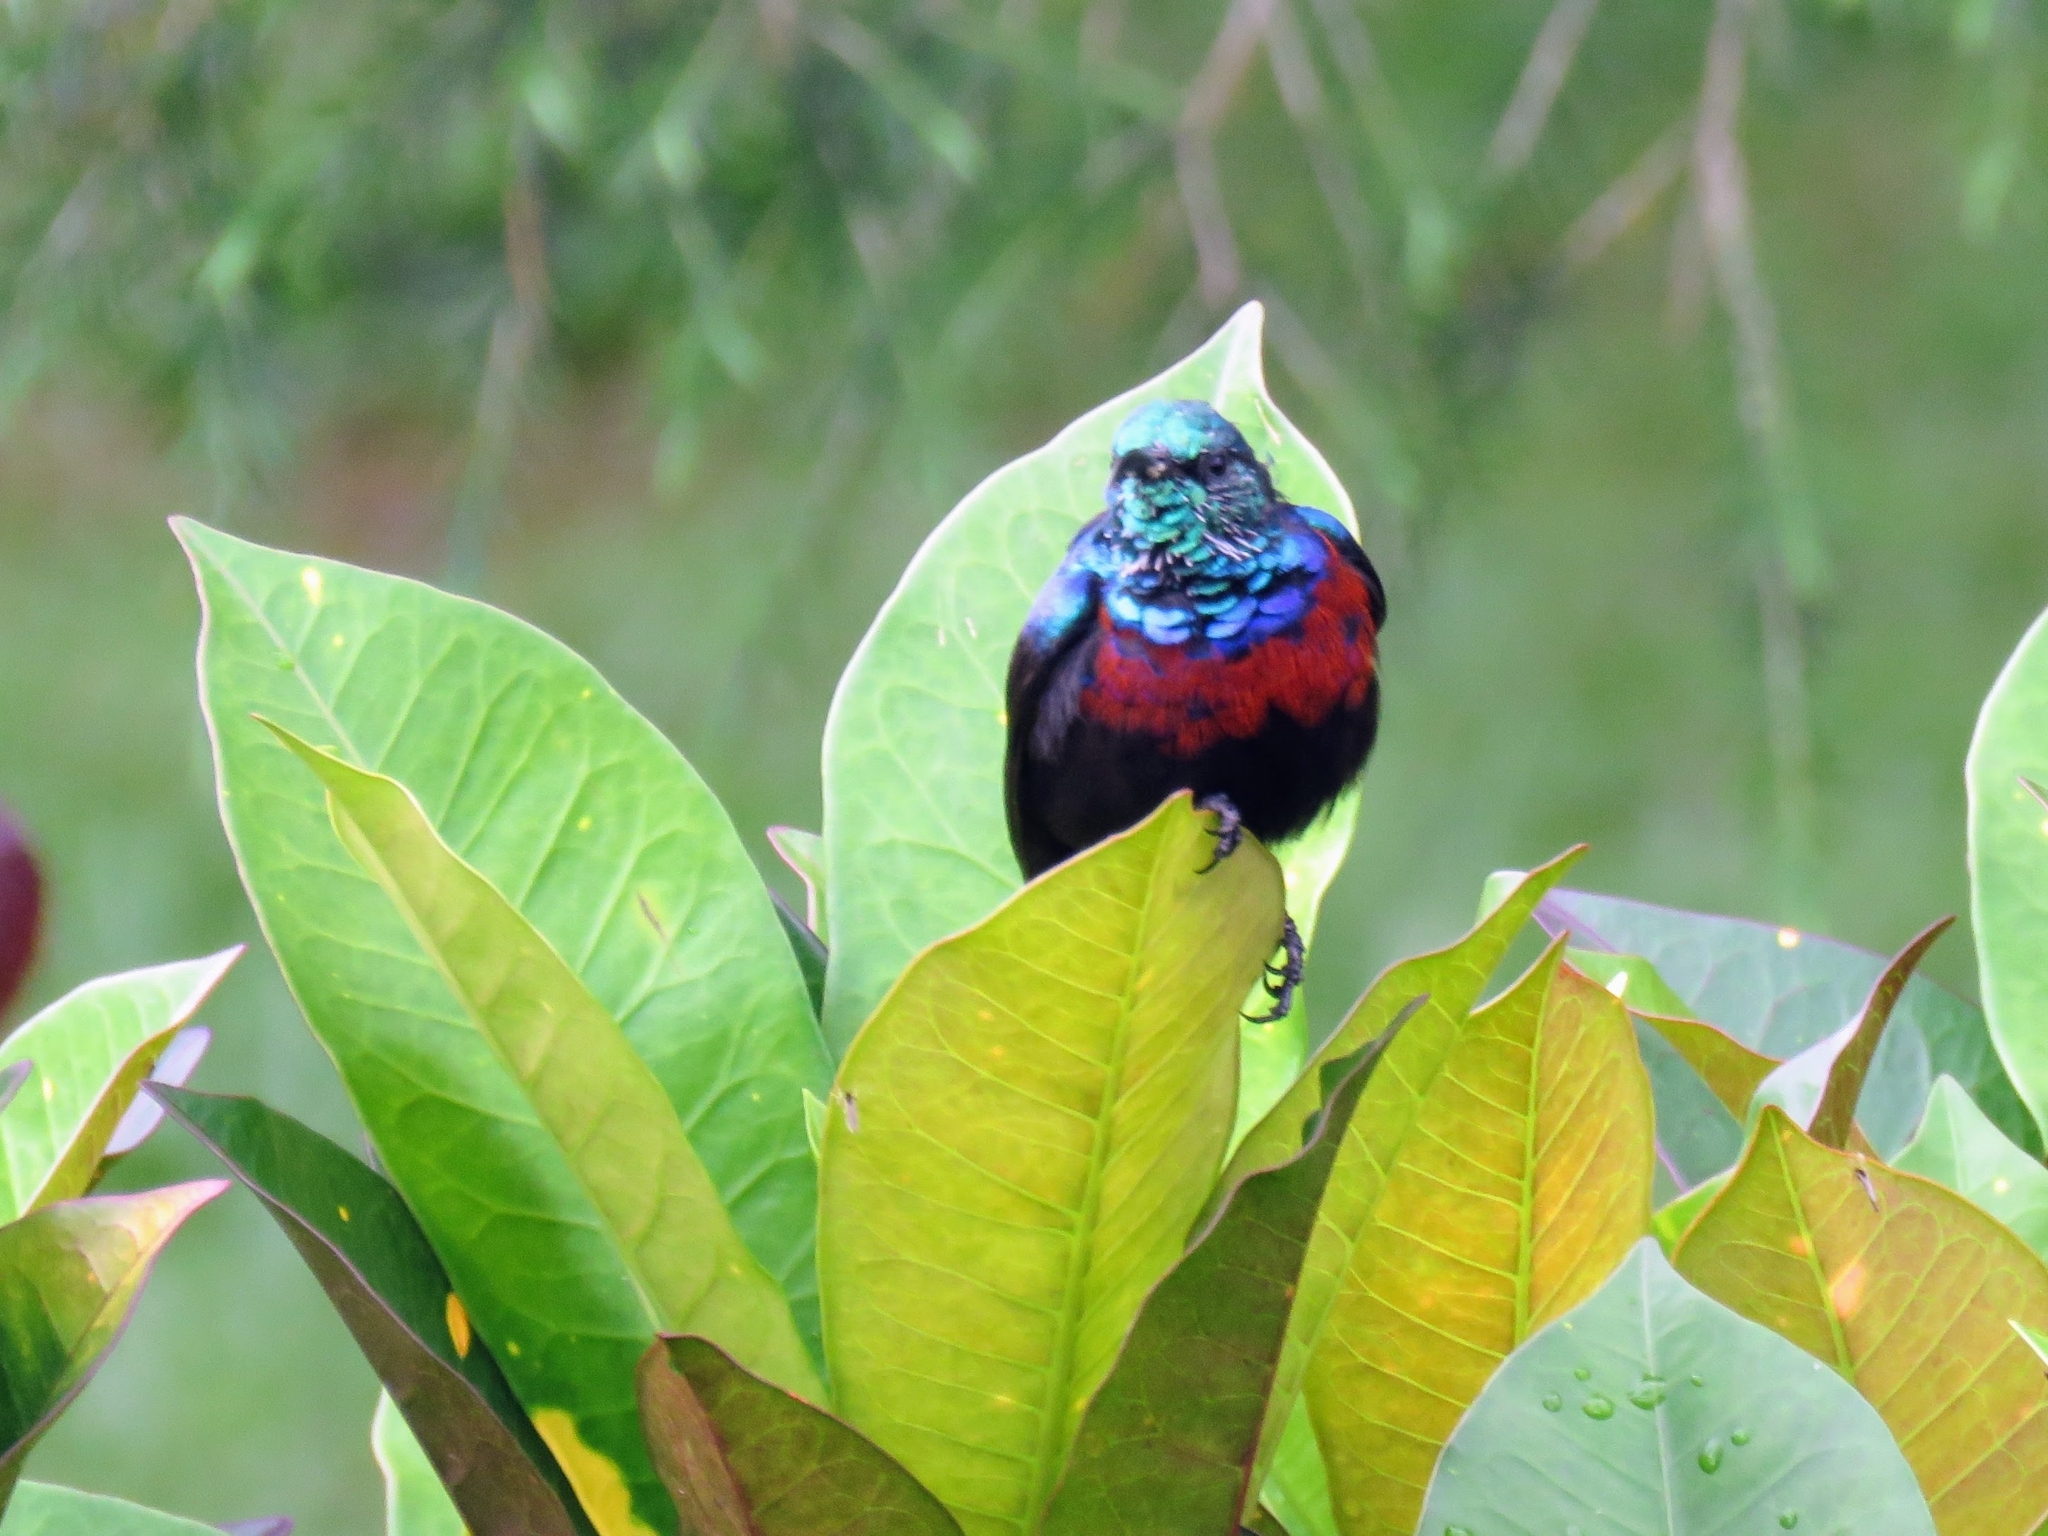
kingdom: Animalia
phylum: Chordata
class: Aves
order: Passeriformes
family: Nectariniidae
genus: Cinnyris
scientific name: Cinnyris erythrocercus
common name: Red-chested sunbird
